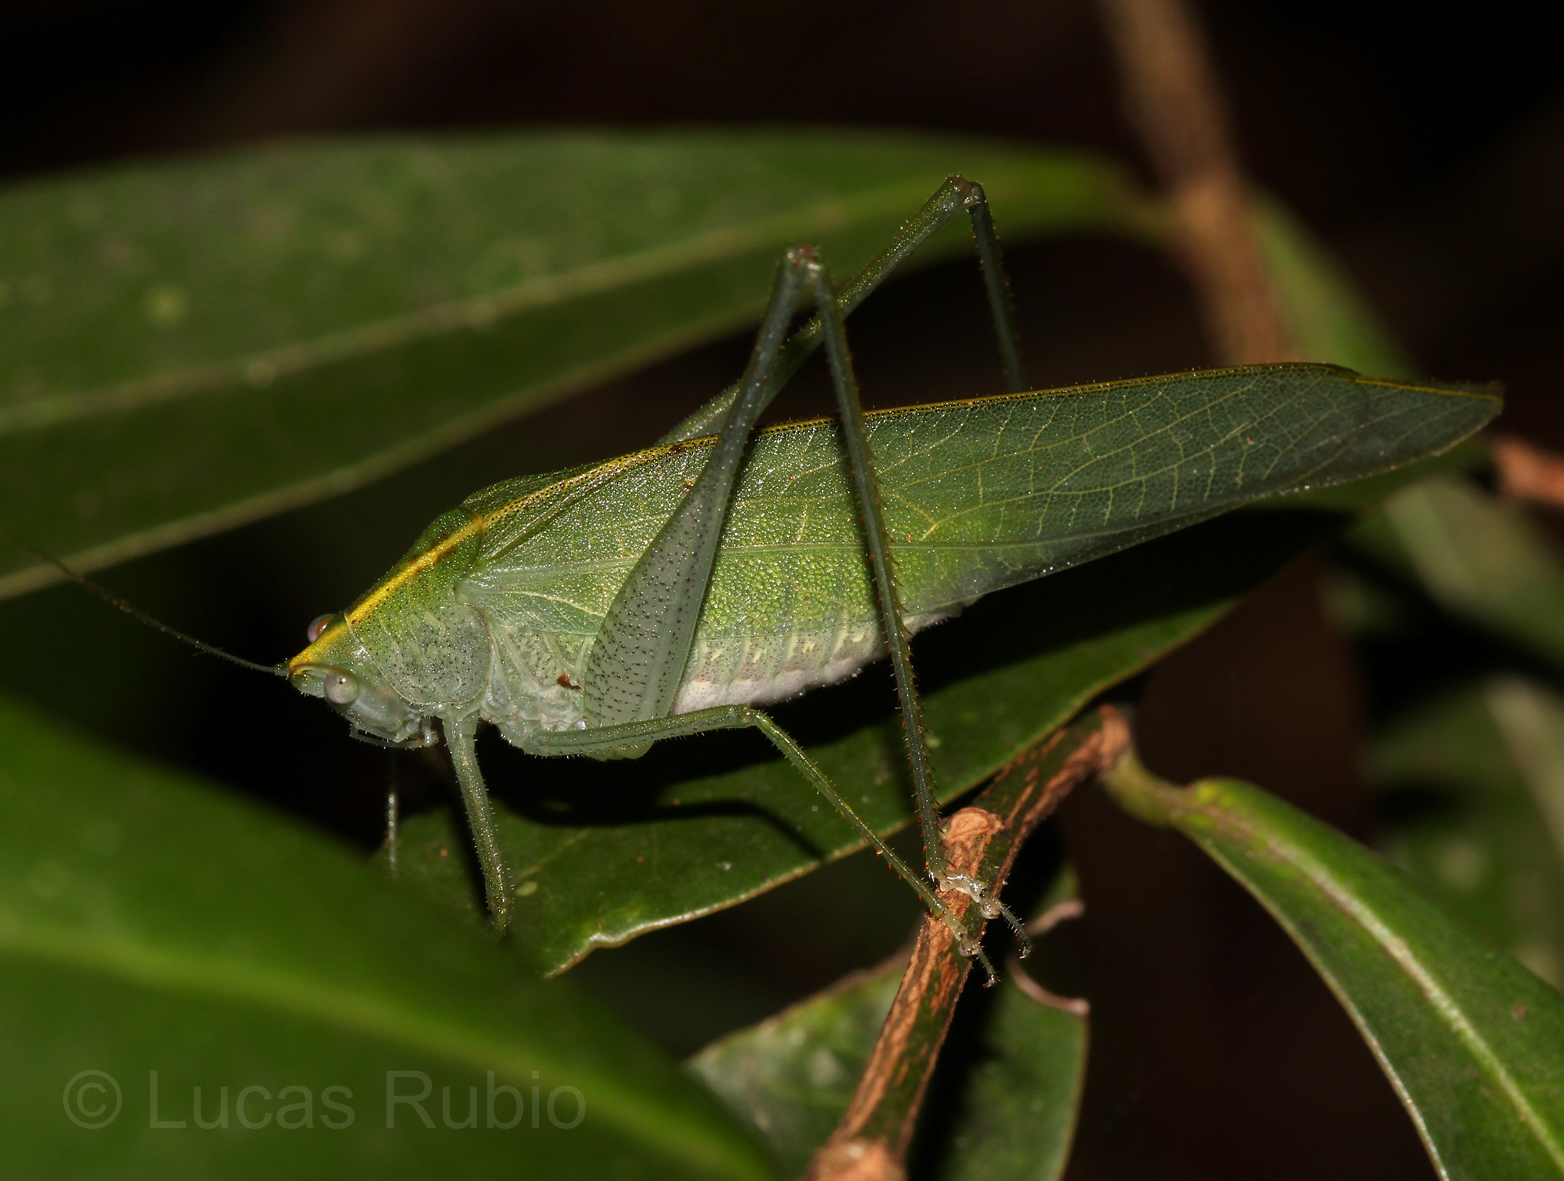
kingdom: Animalia
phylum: Arthropoda
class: Insecta
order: Orthoptera
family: Tettigoniidae
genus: Grammadera
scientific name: Grammadera clara
